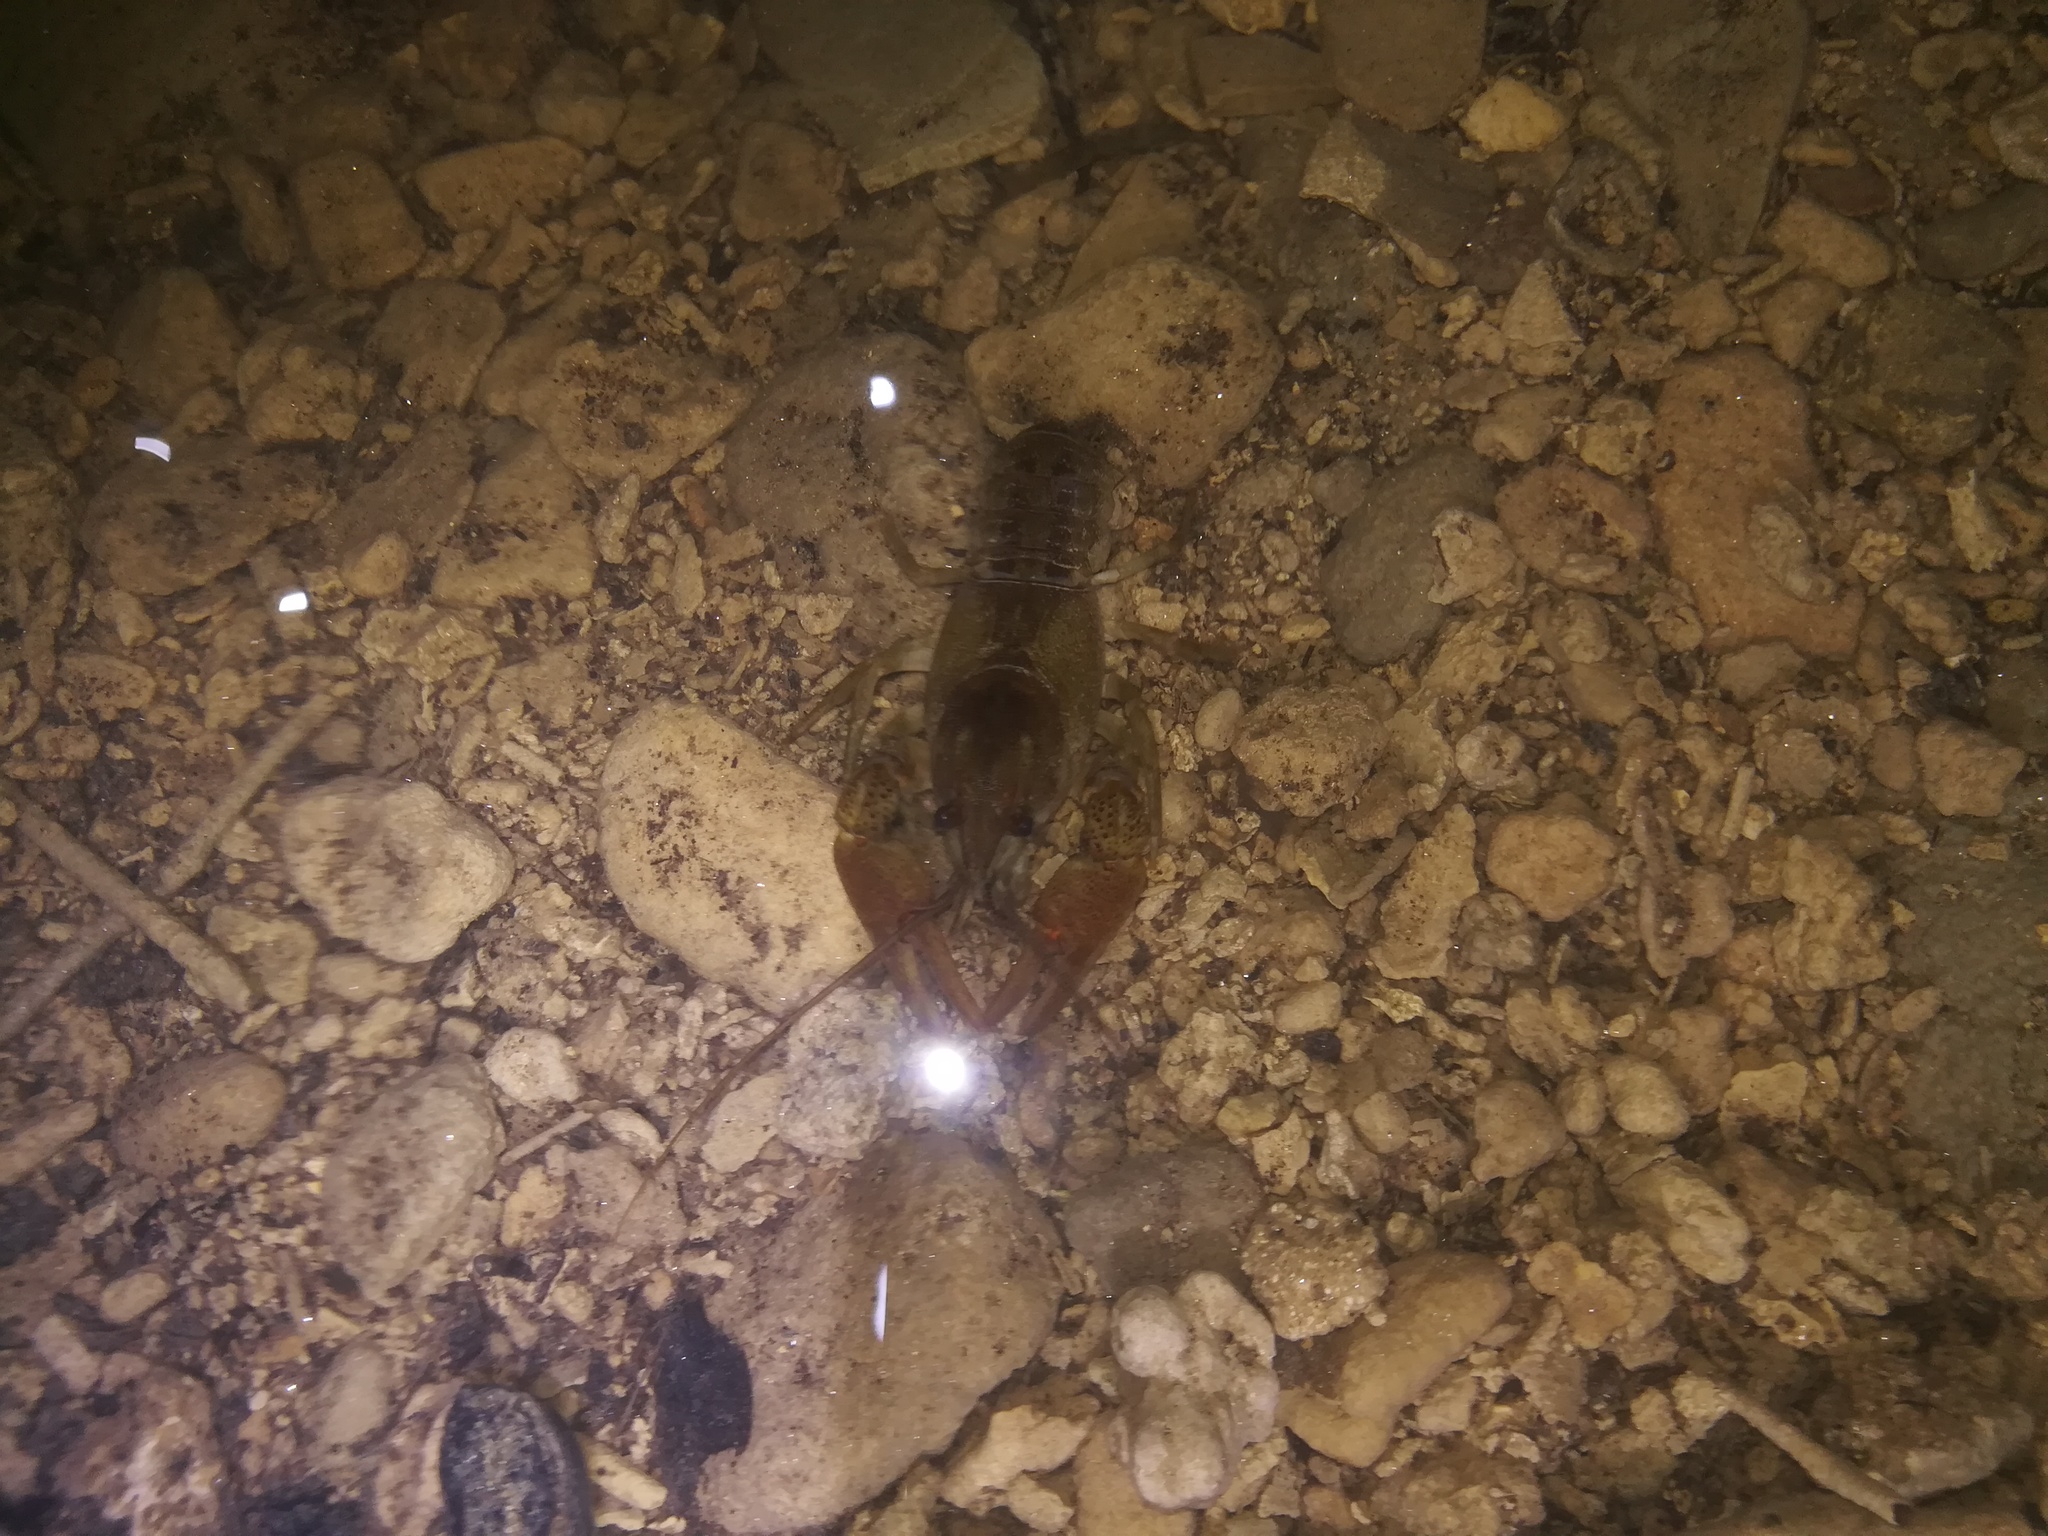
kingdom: Animalia
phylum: Arthropoda
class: Malacostraca
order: Decapoda
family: Astacidae
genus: Austropotamobius
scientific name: Austropotamobius pallipes
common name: White-clawed crayfish
